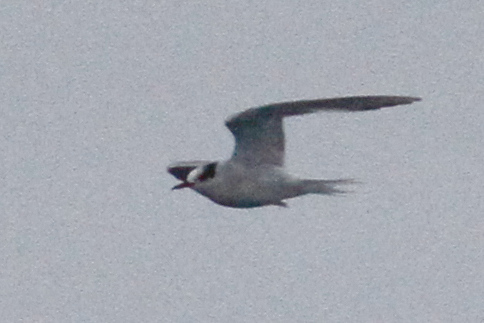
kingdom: Animalia
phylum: Chordata
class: Aves
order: Charadriiformes
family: Laridae
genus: Sterna
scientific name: Sterna vittata
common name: Antarctic tern
